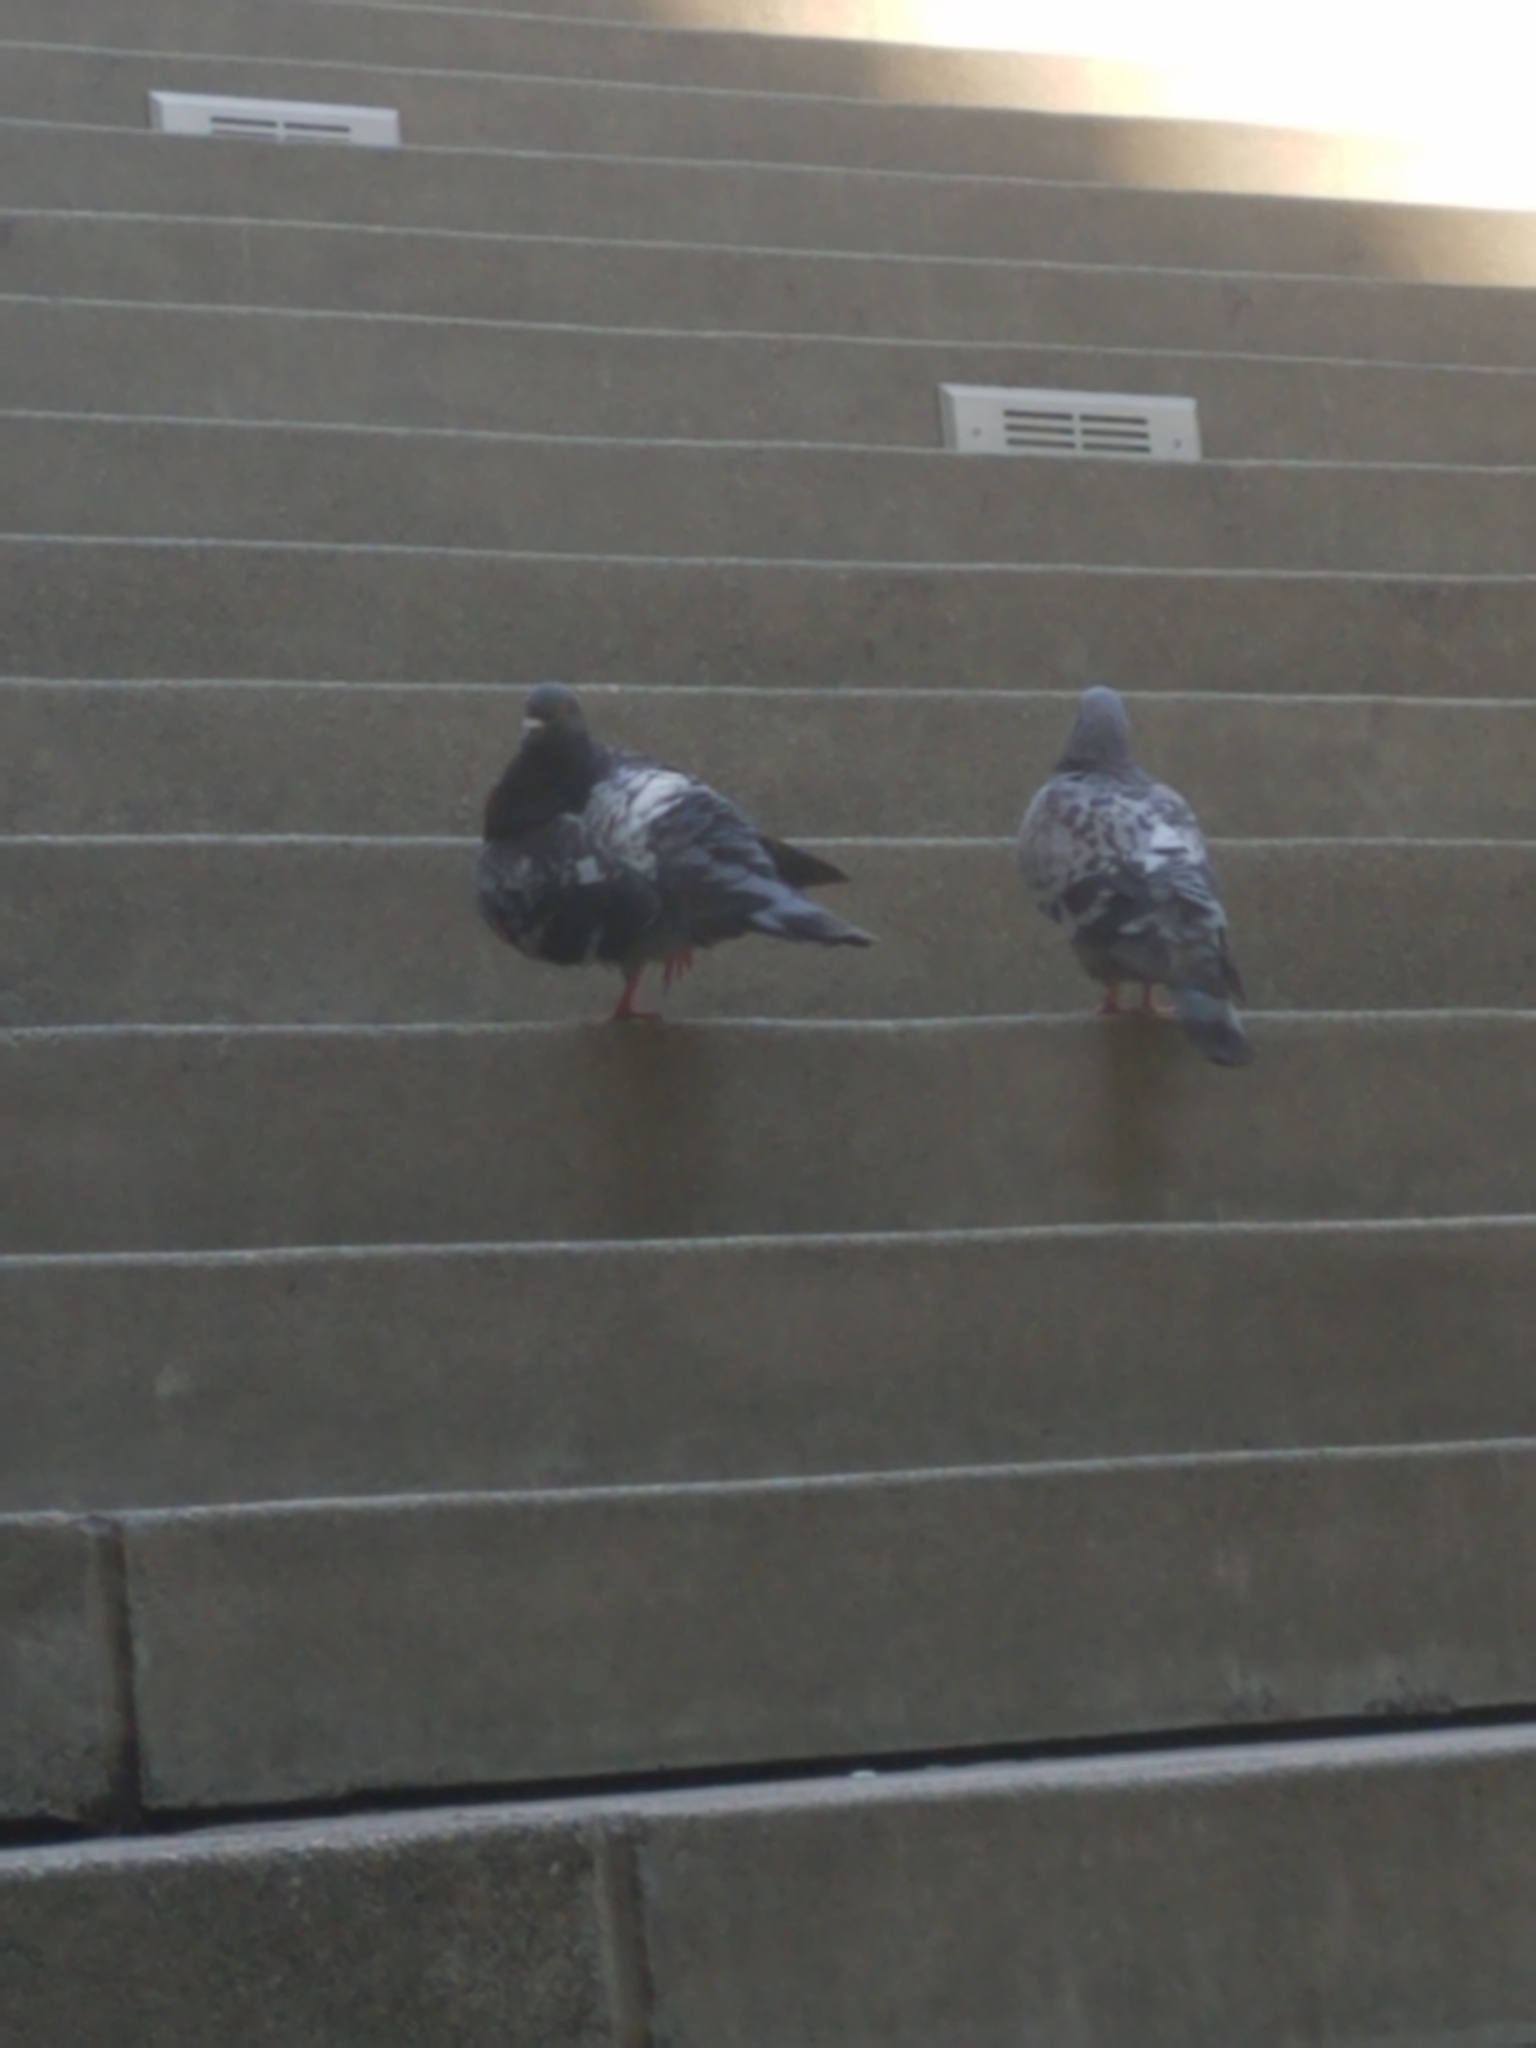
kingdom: Animalia
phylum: Chordata
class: Aves
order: Columbiformes
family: Columbidae
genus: Columba
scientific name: Columba livia
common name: Rock pigeon
